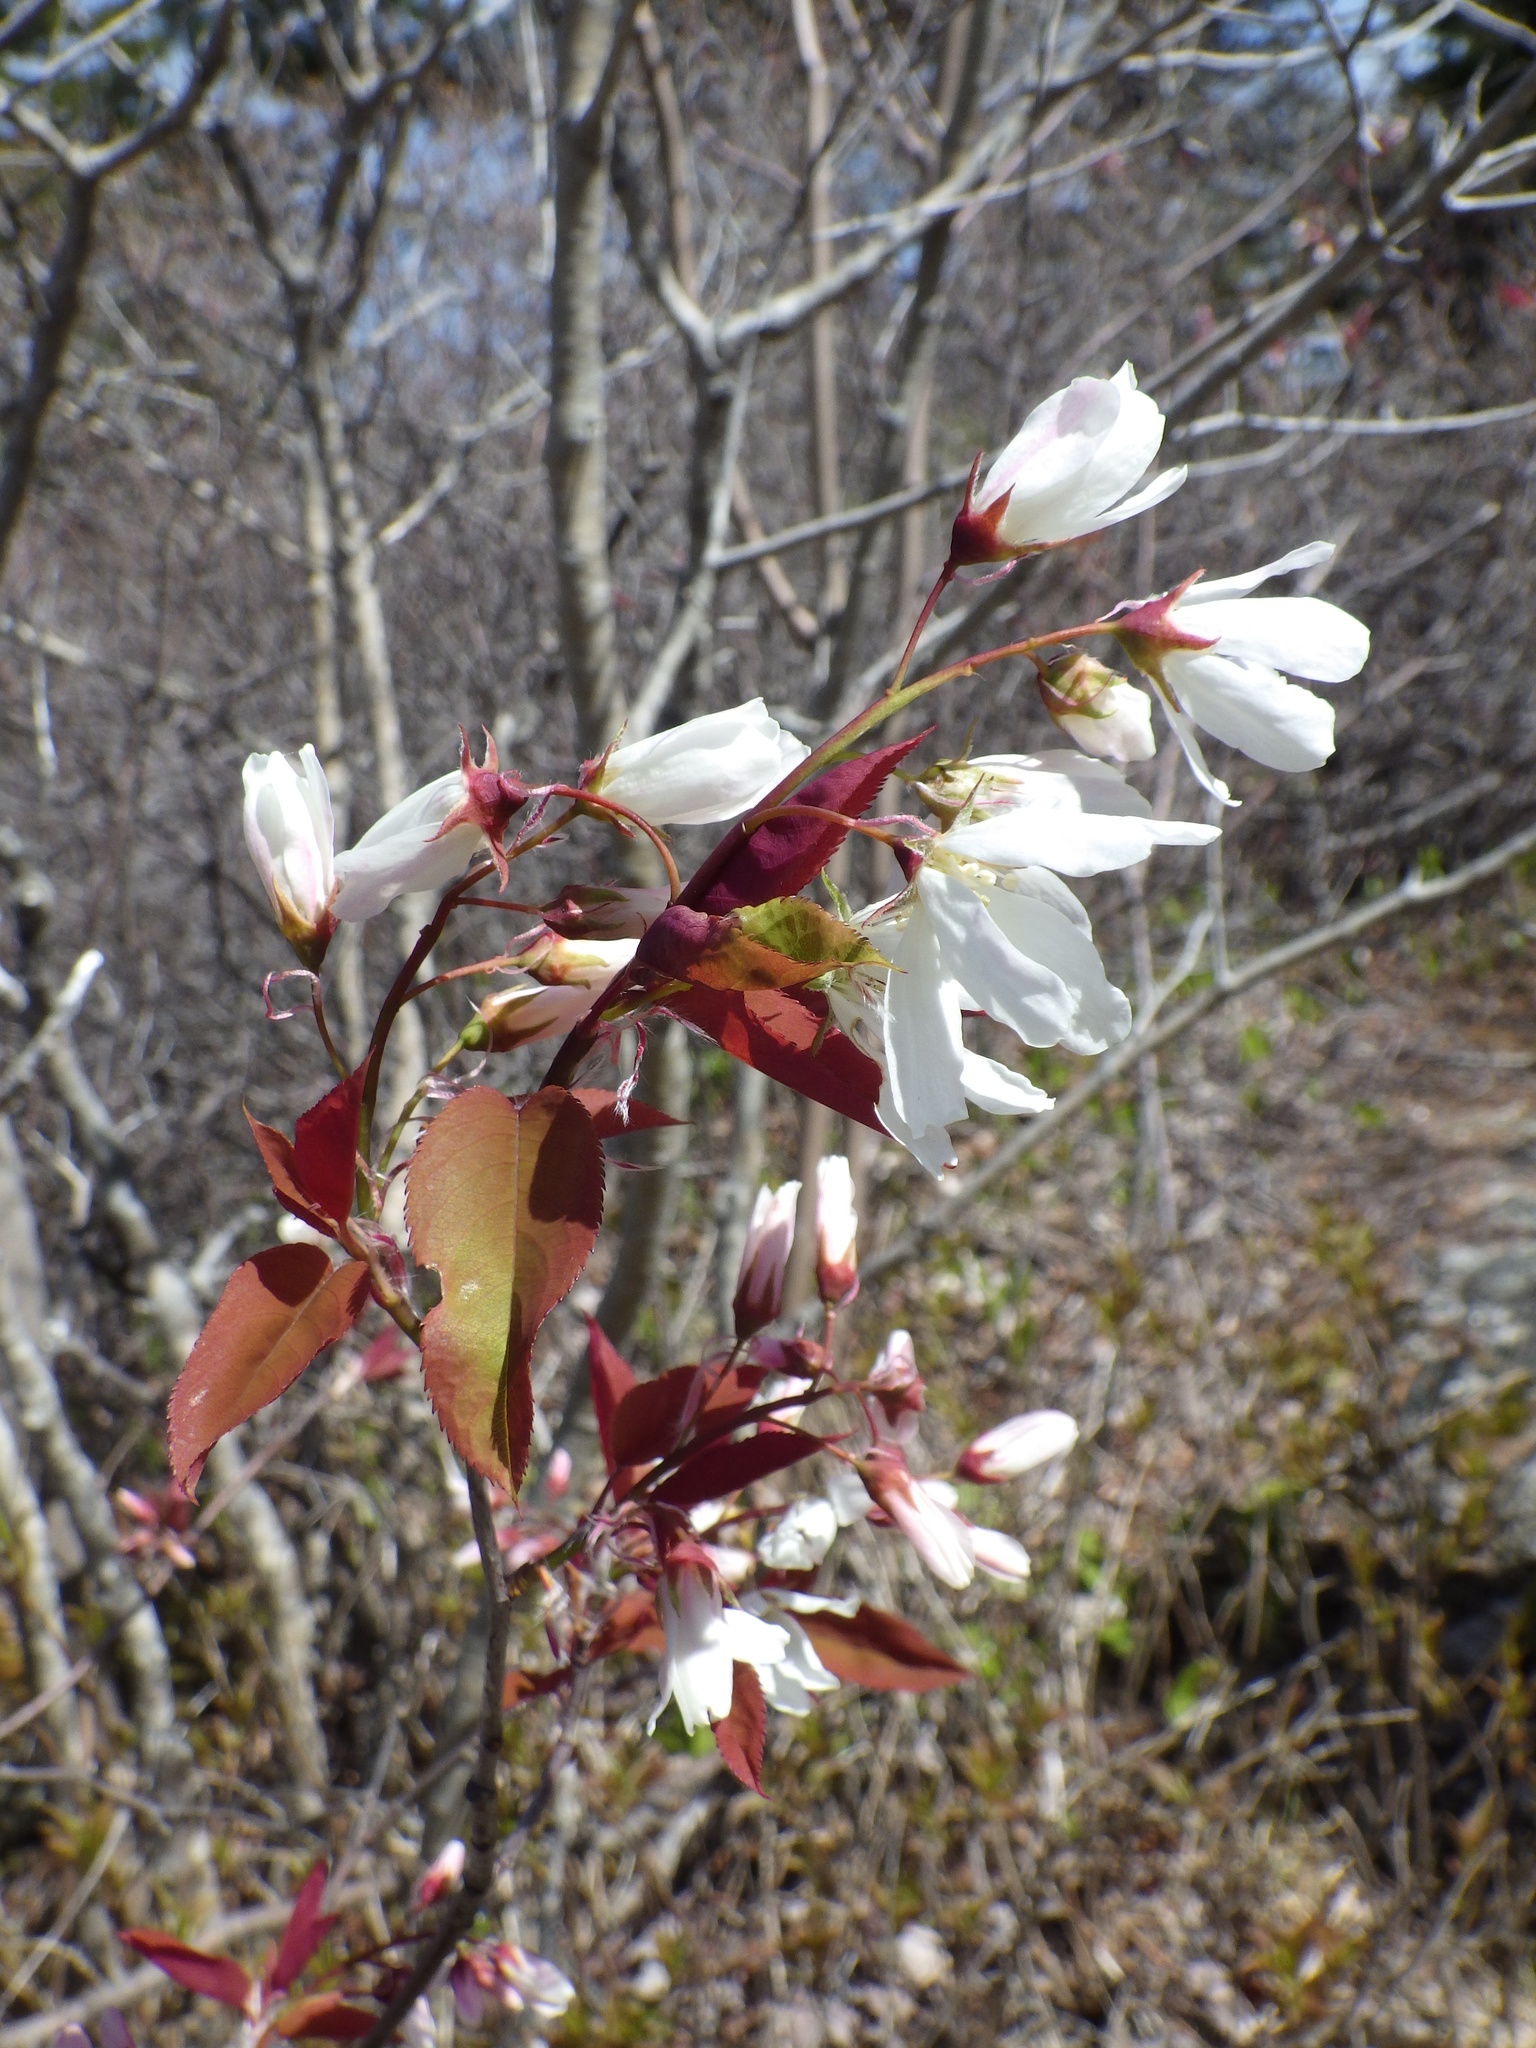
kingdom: Plantae
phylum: Tracheophyta
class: Magnoliopsida
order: Rosales
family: Rosaceae
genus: Amelanchier
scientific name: Amelanchier laevis
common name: Allegheny serviceberry
